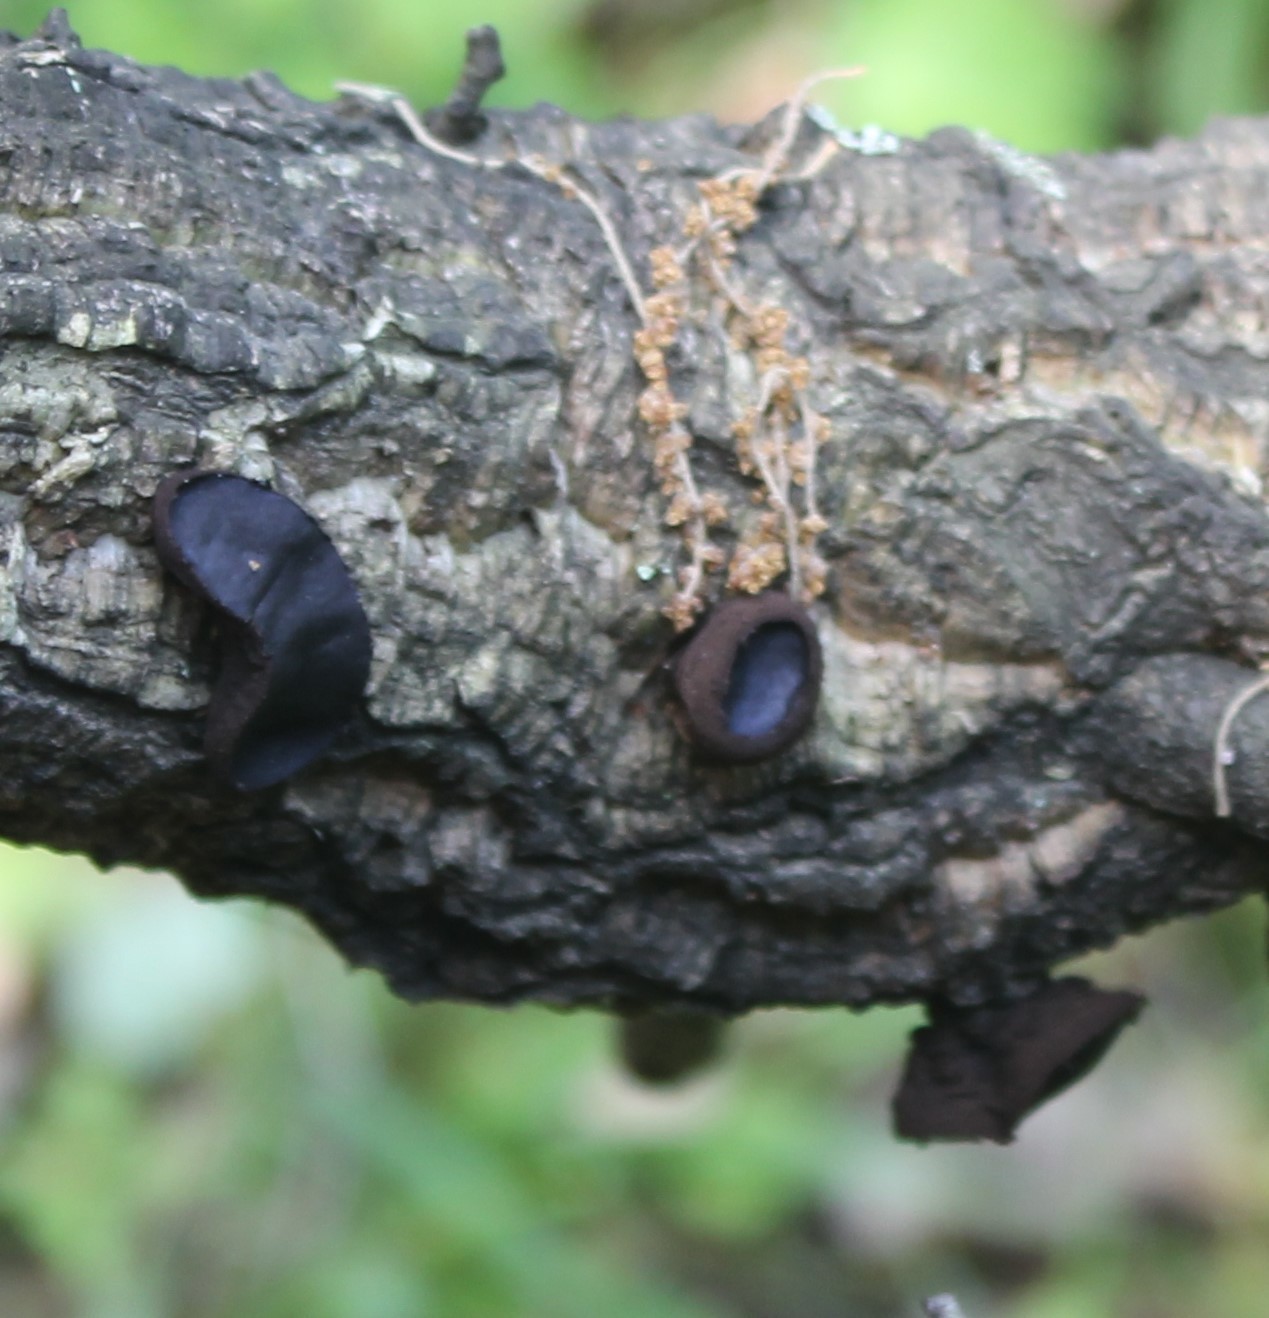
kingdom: Fungi
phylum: Ascomycota
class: Leotiomycetes
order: Phacidiales
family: Phacidiaceae
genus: Bulgaria
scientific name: Bulgaria inquinans
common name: Black bulgar
